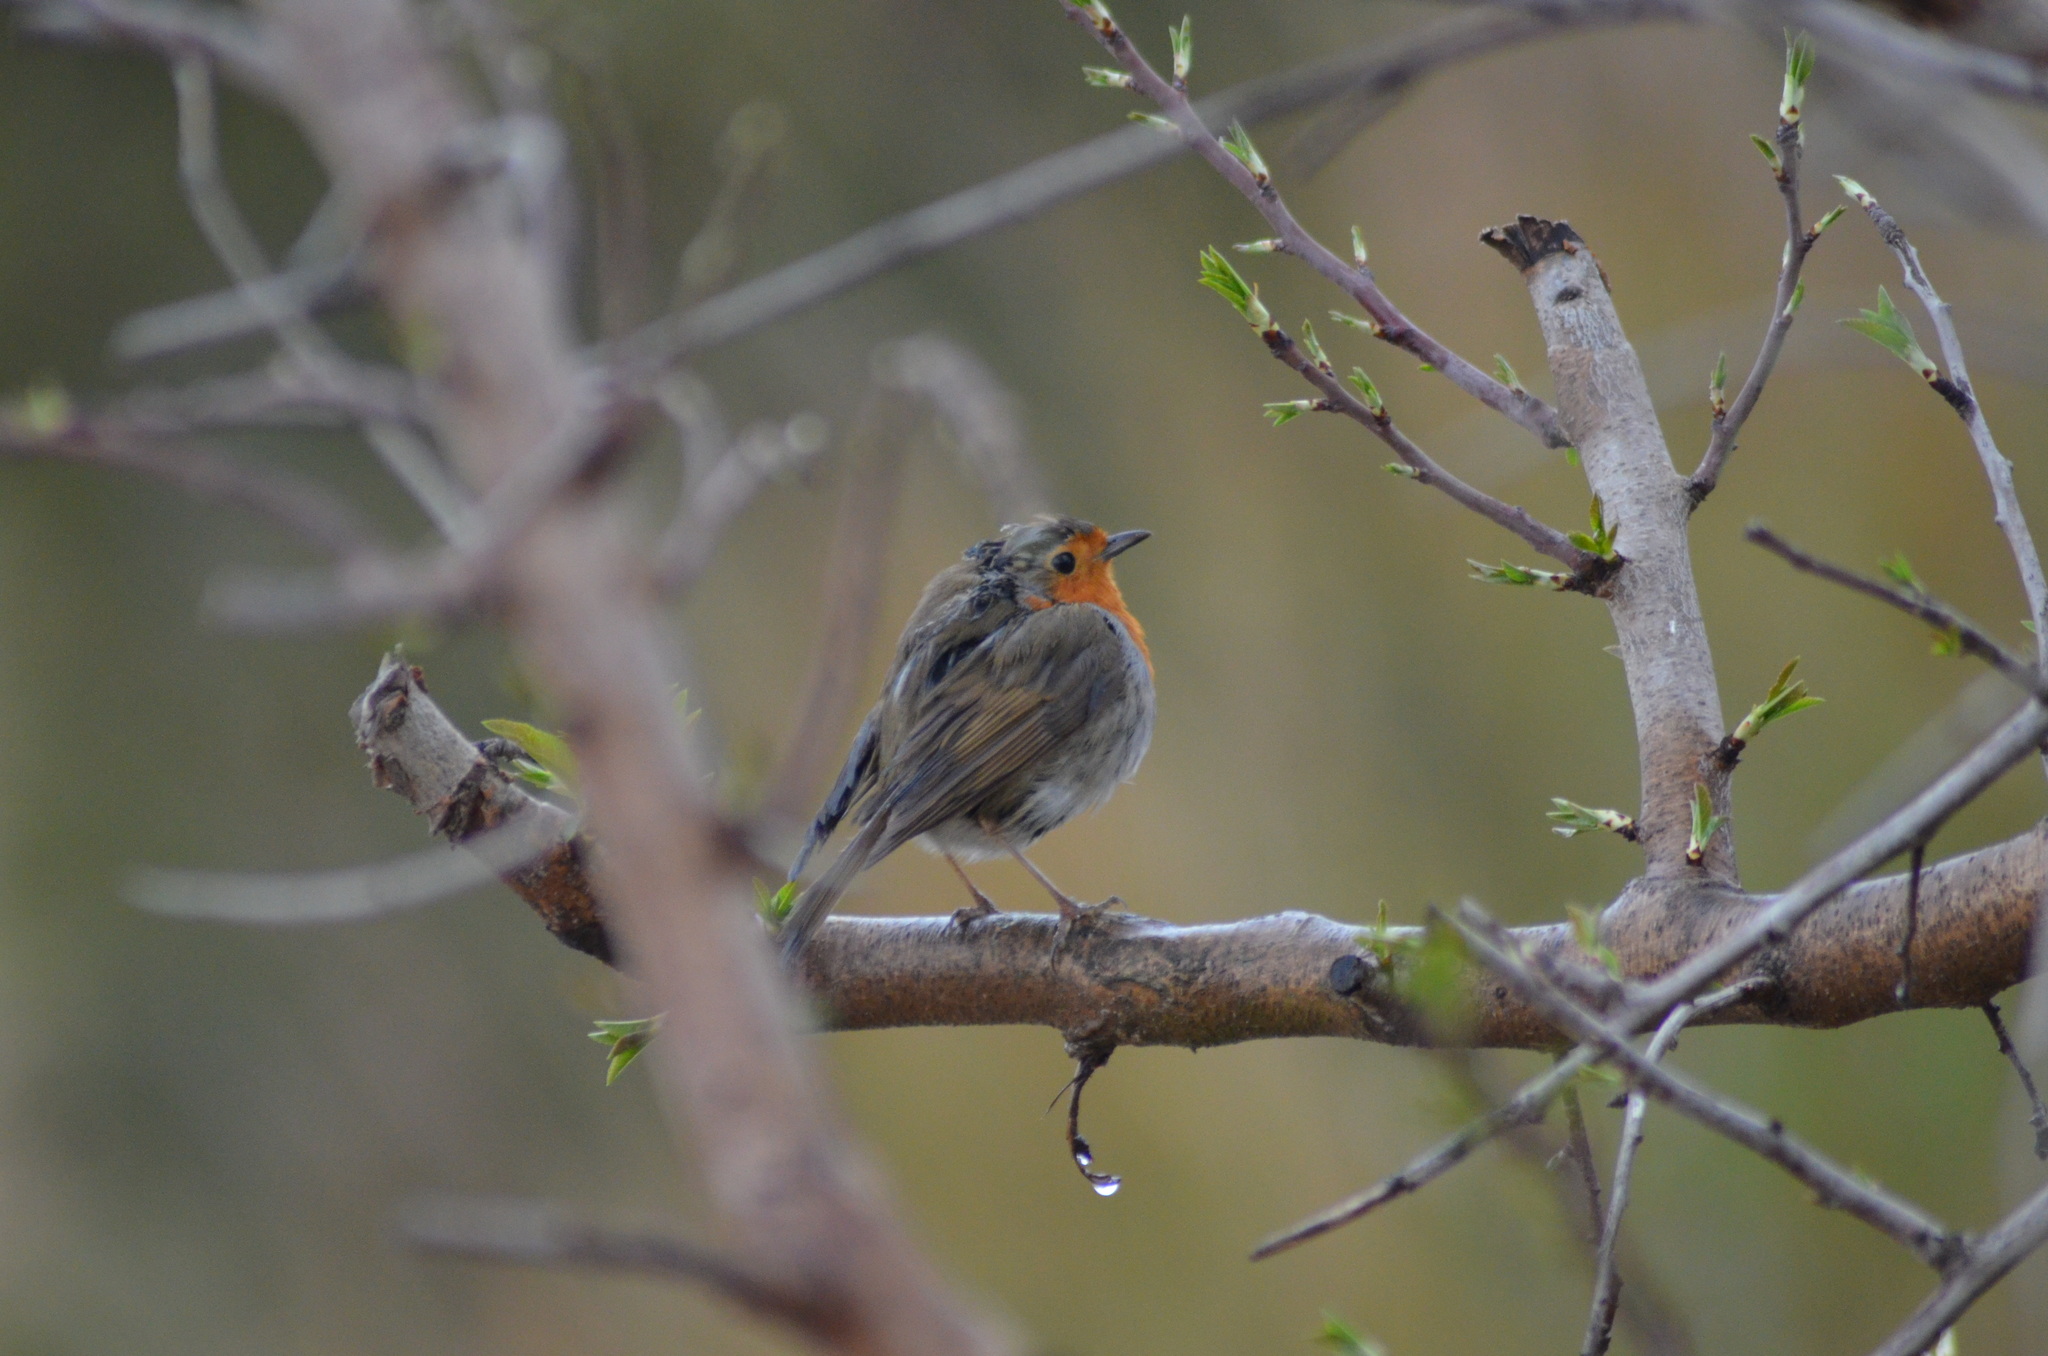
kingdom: Animalia
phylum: Chordata
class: Aves
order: Passeriformes
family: Muscicapidae
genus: Erithacus
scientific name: Erithacus rubecula
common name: European robin
